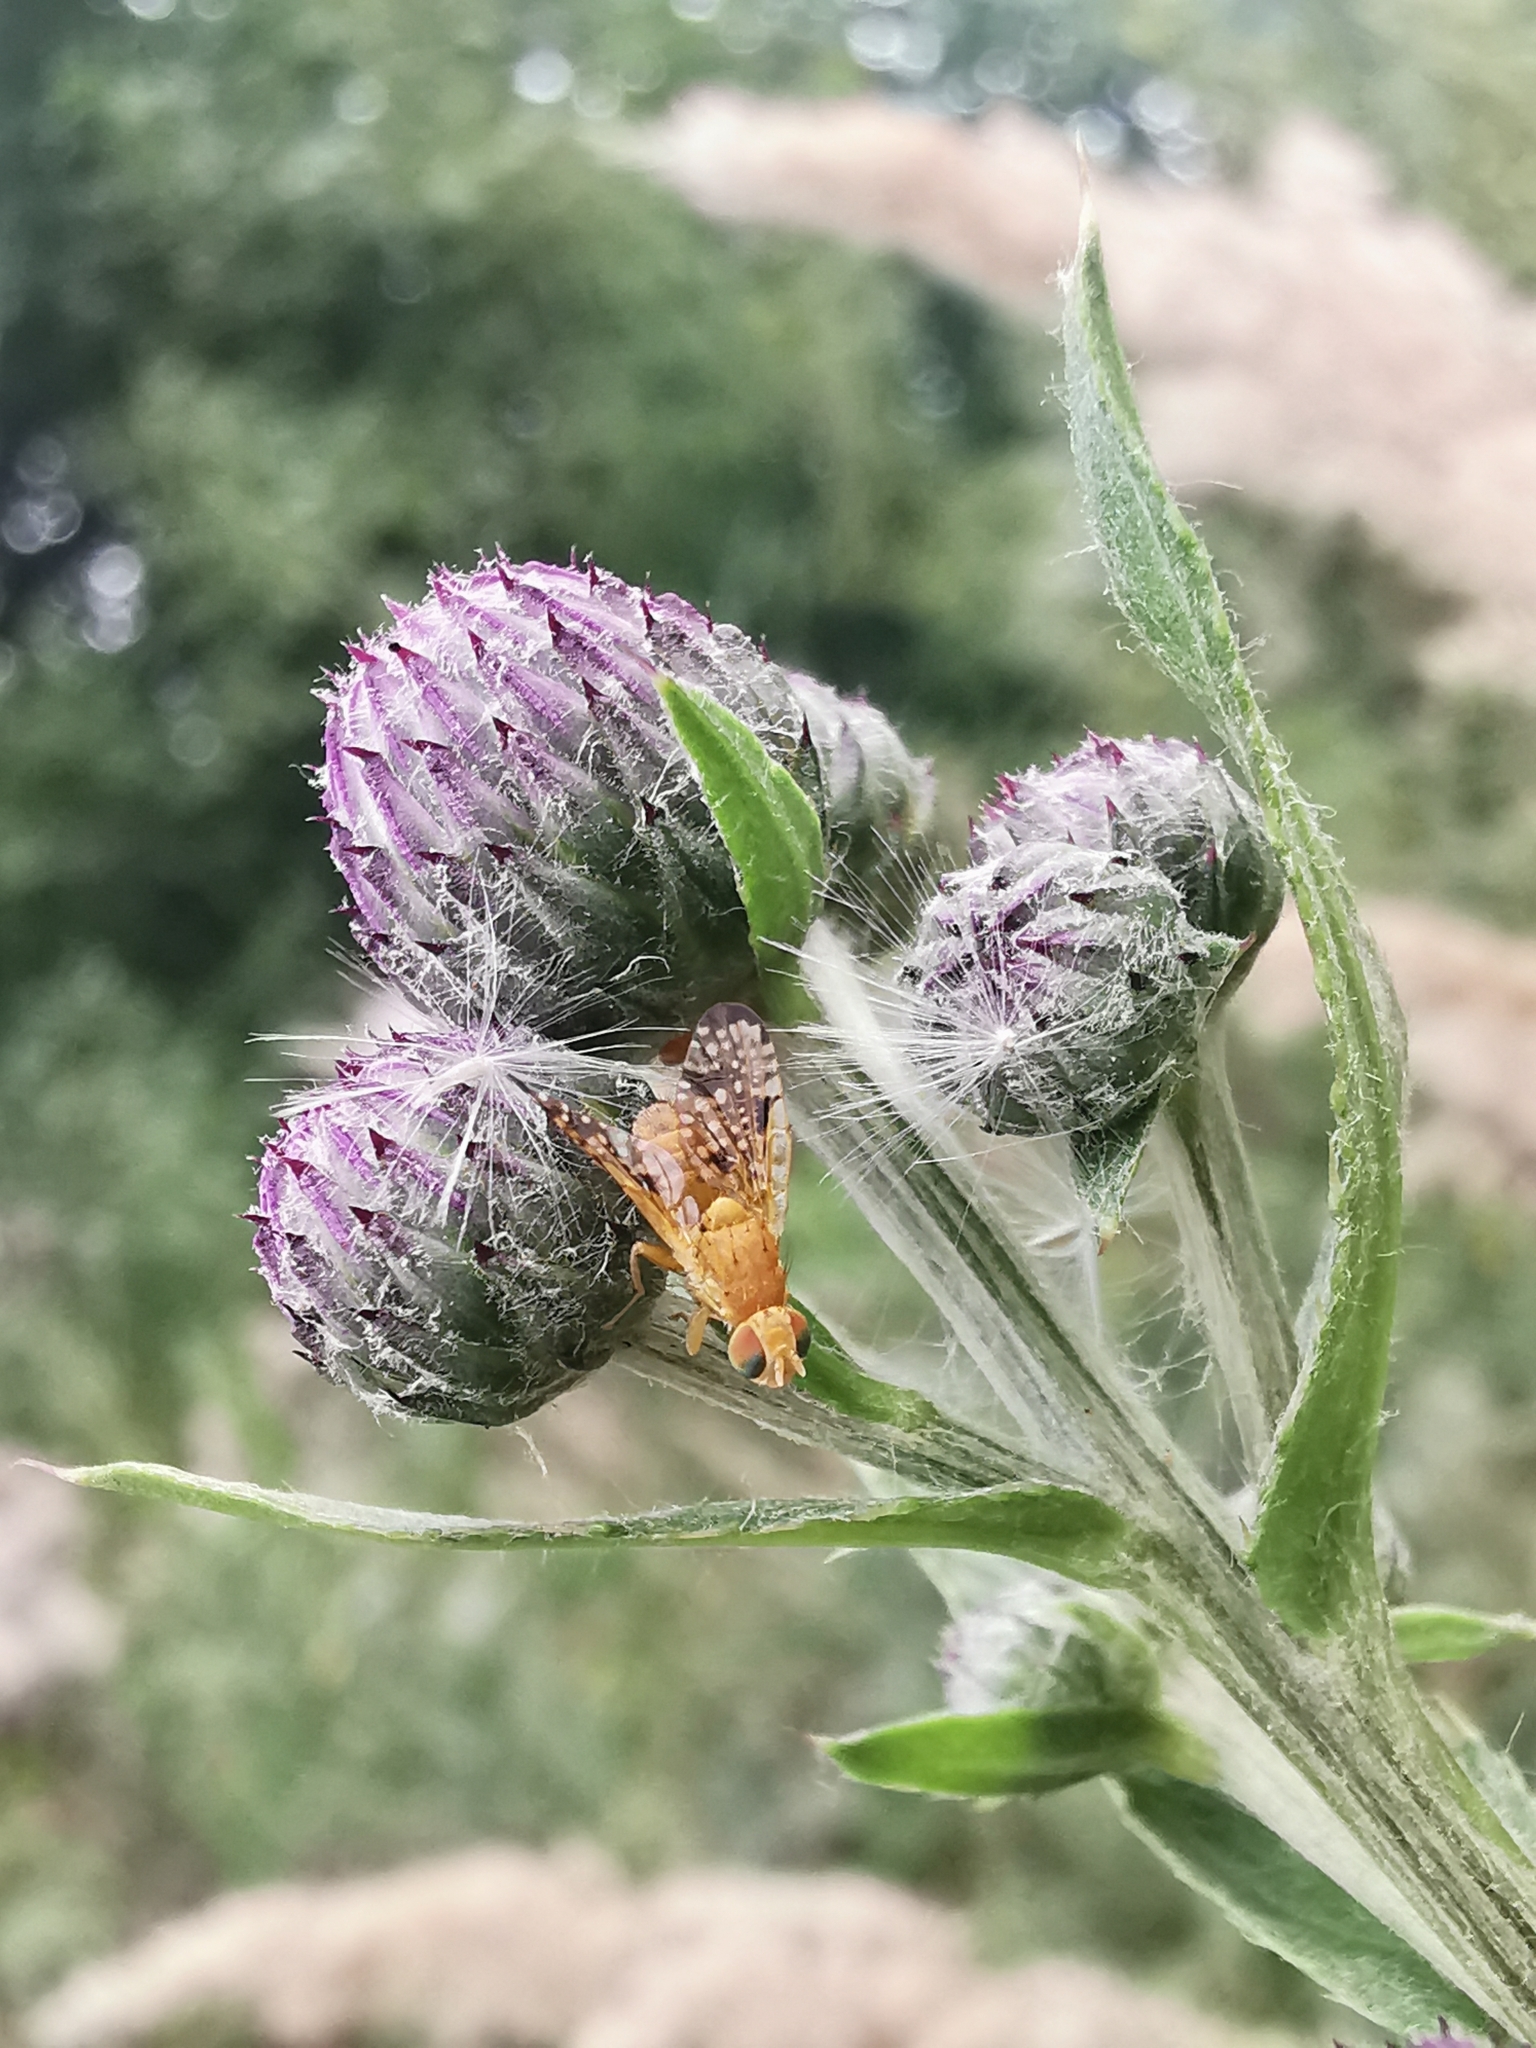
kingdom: Animalia
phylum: Arthropoda
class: Insecta
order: Diptera
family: Tephritidae
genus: Xyphosia
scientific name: Xyphosia miliaria
